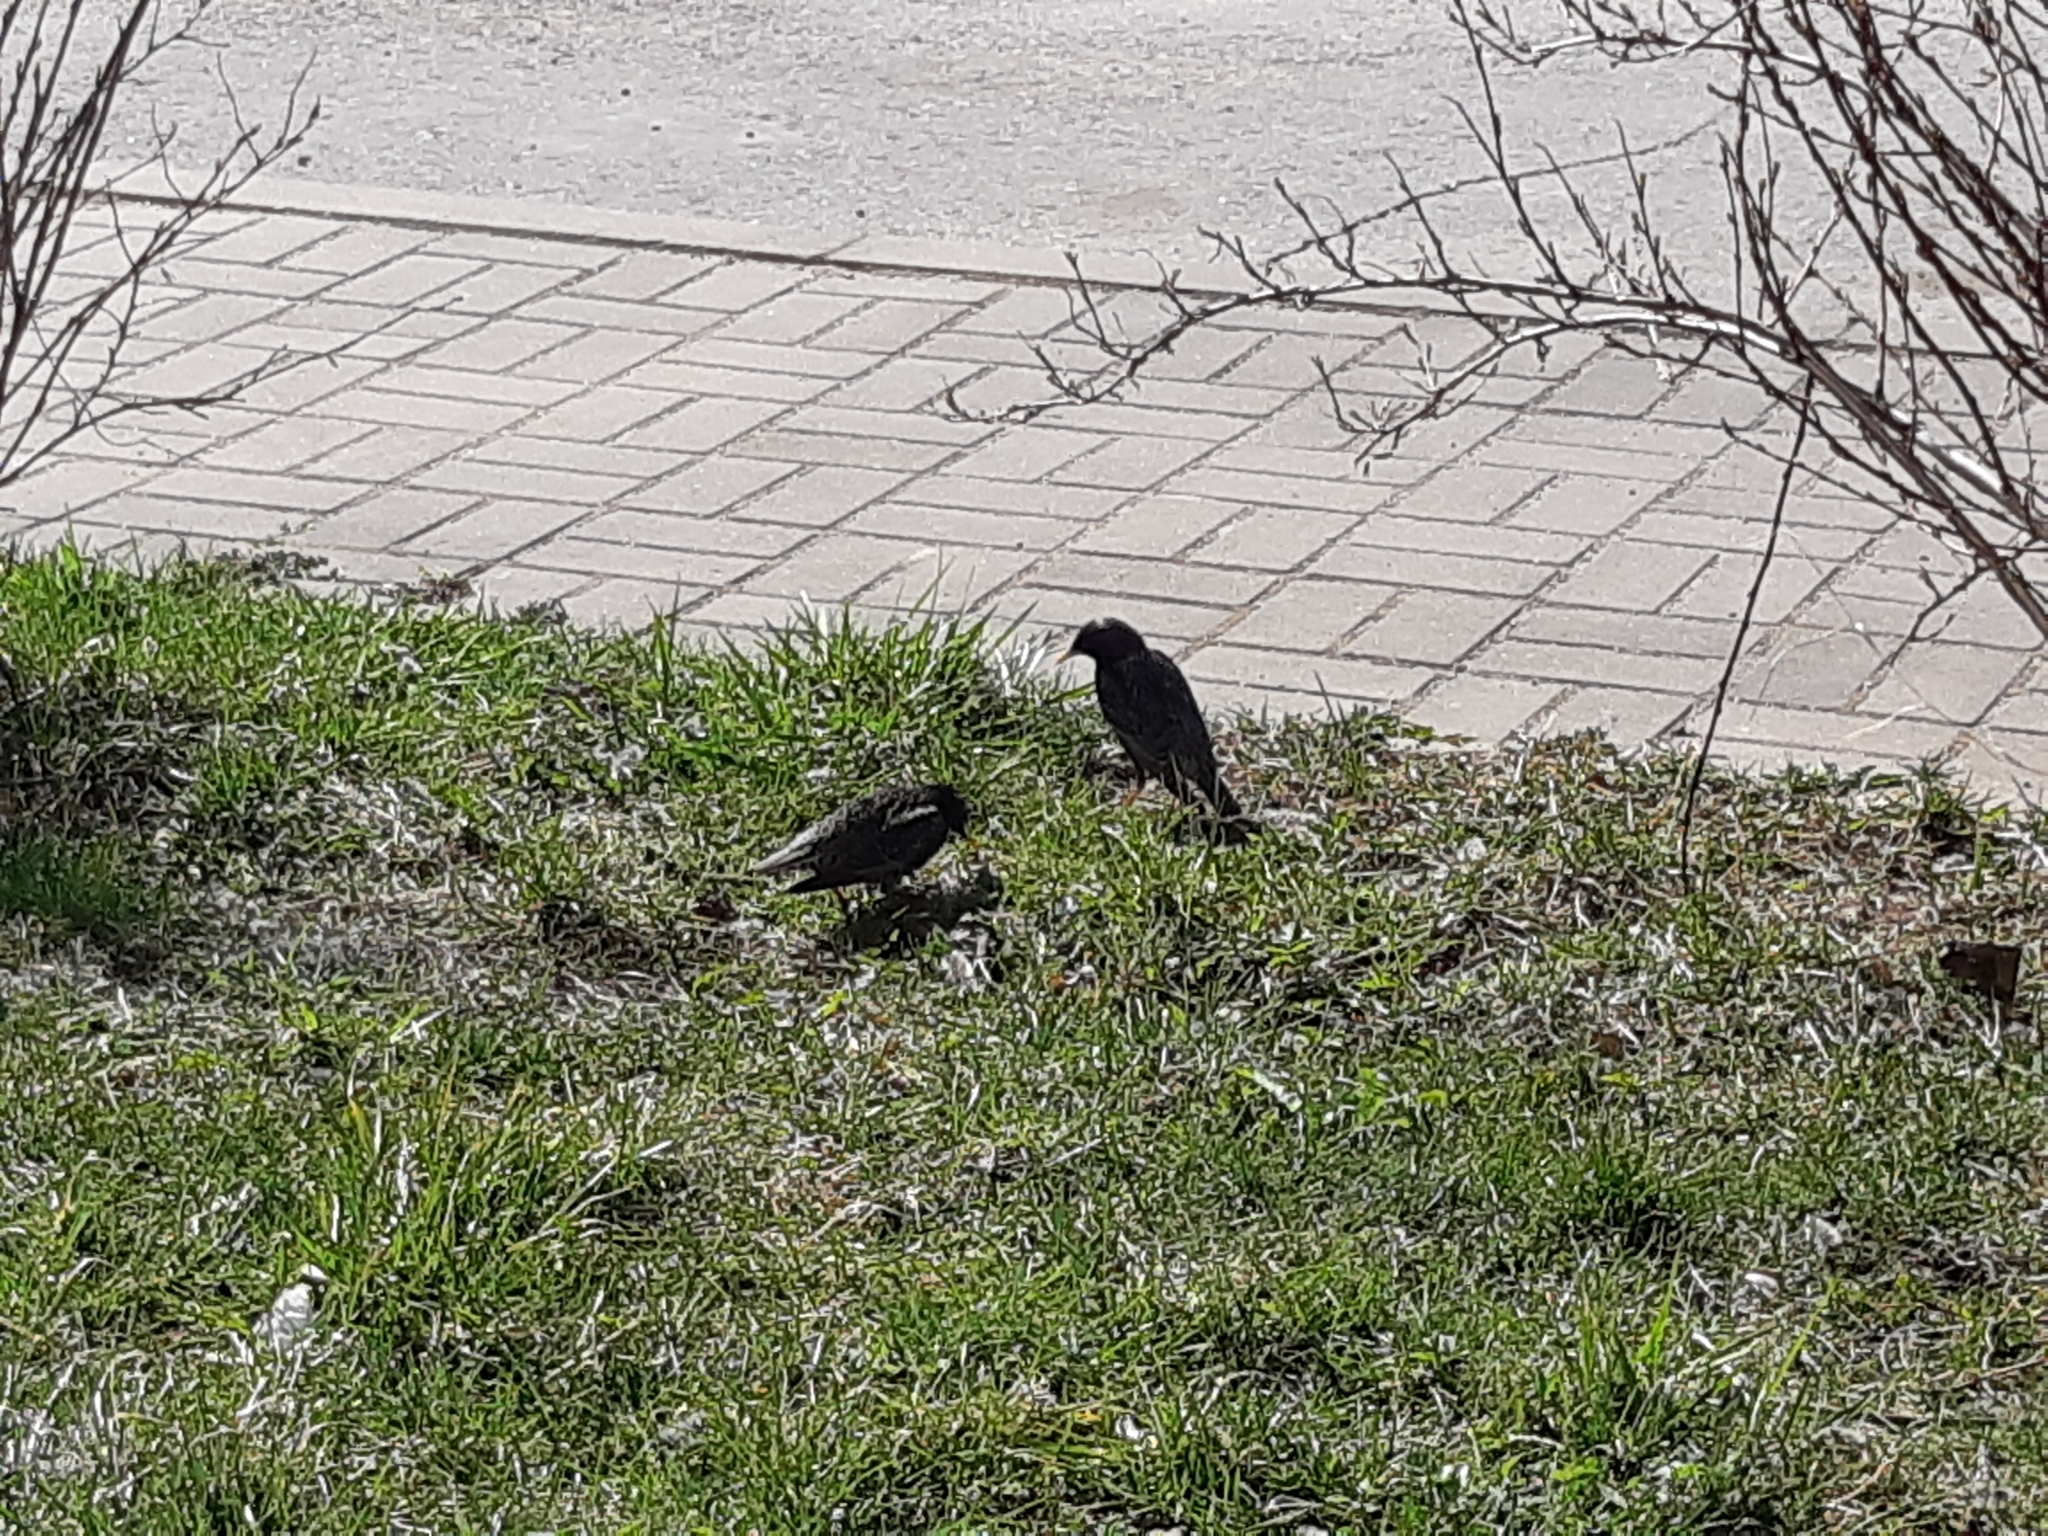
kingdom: Animalia
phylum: Chordata
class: Aves
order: Passeriformes
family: Sturnidae
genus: Sturnus
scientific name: Sturnus vulgaris
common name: Common starling
